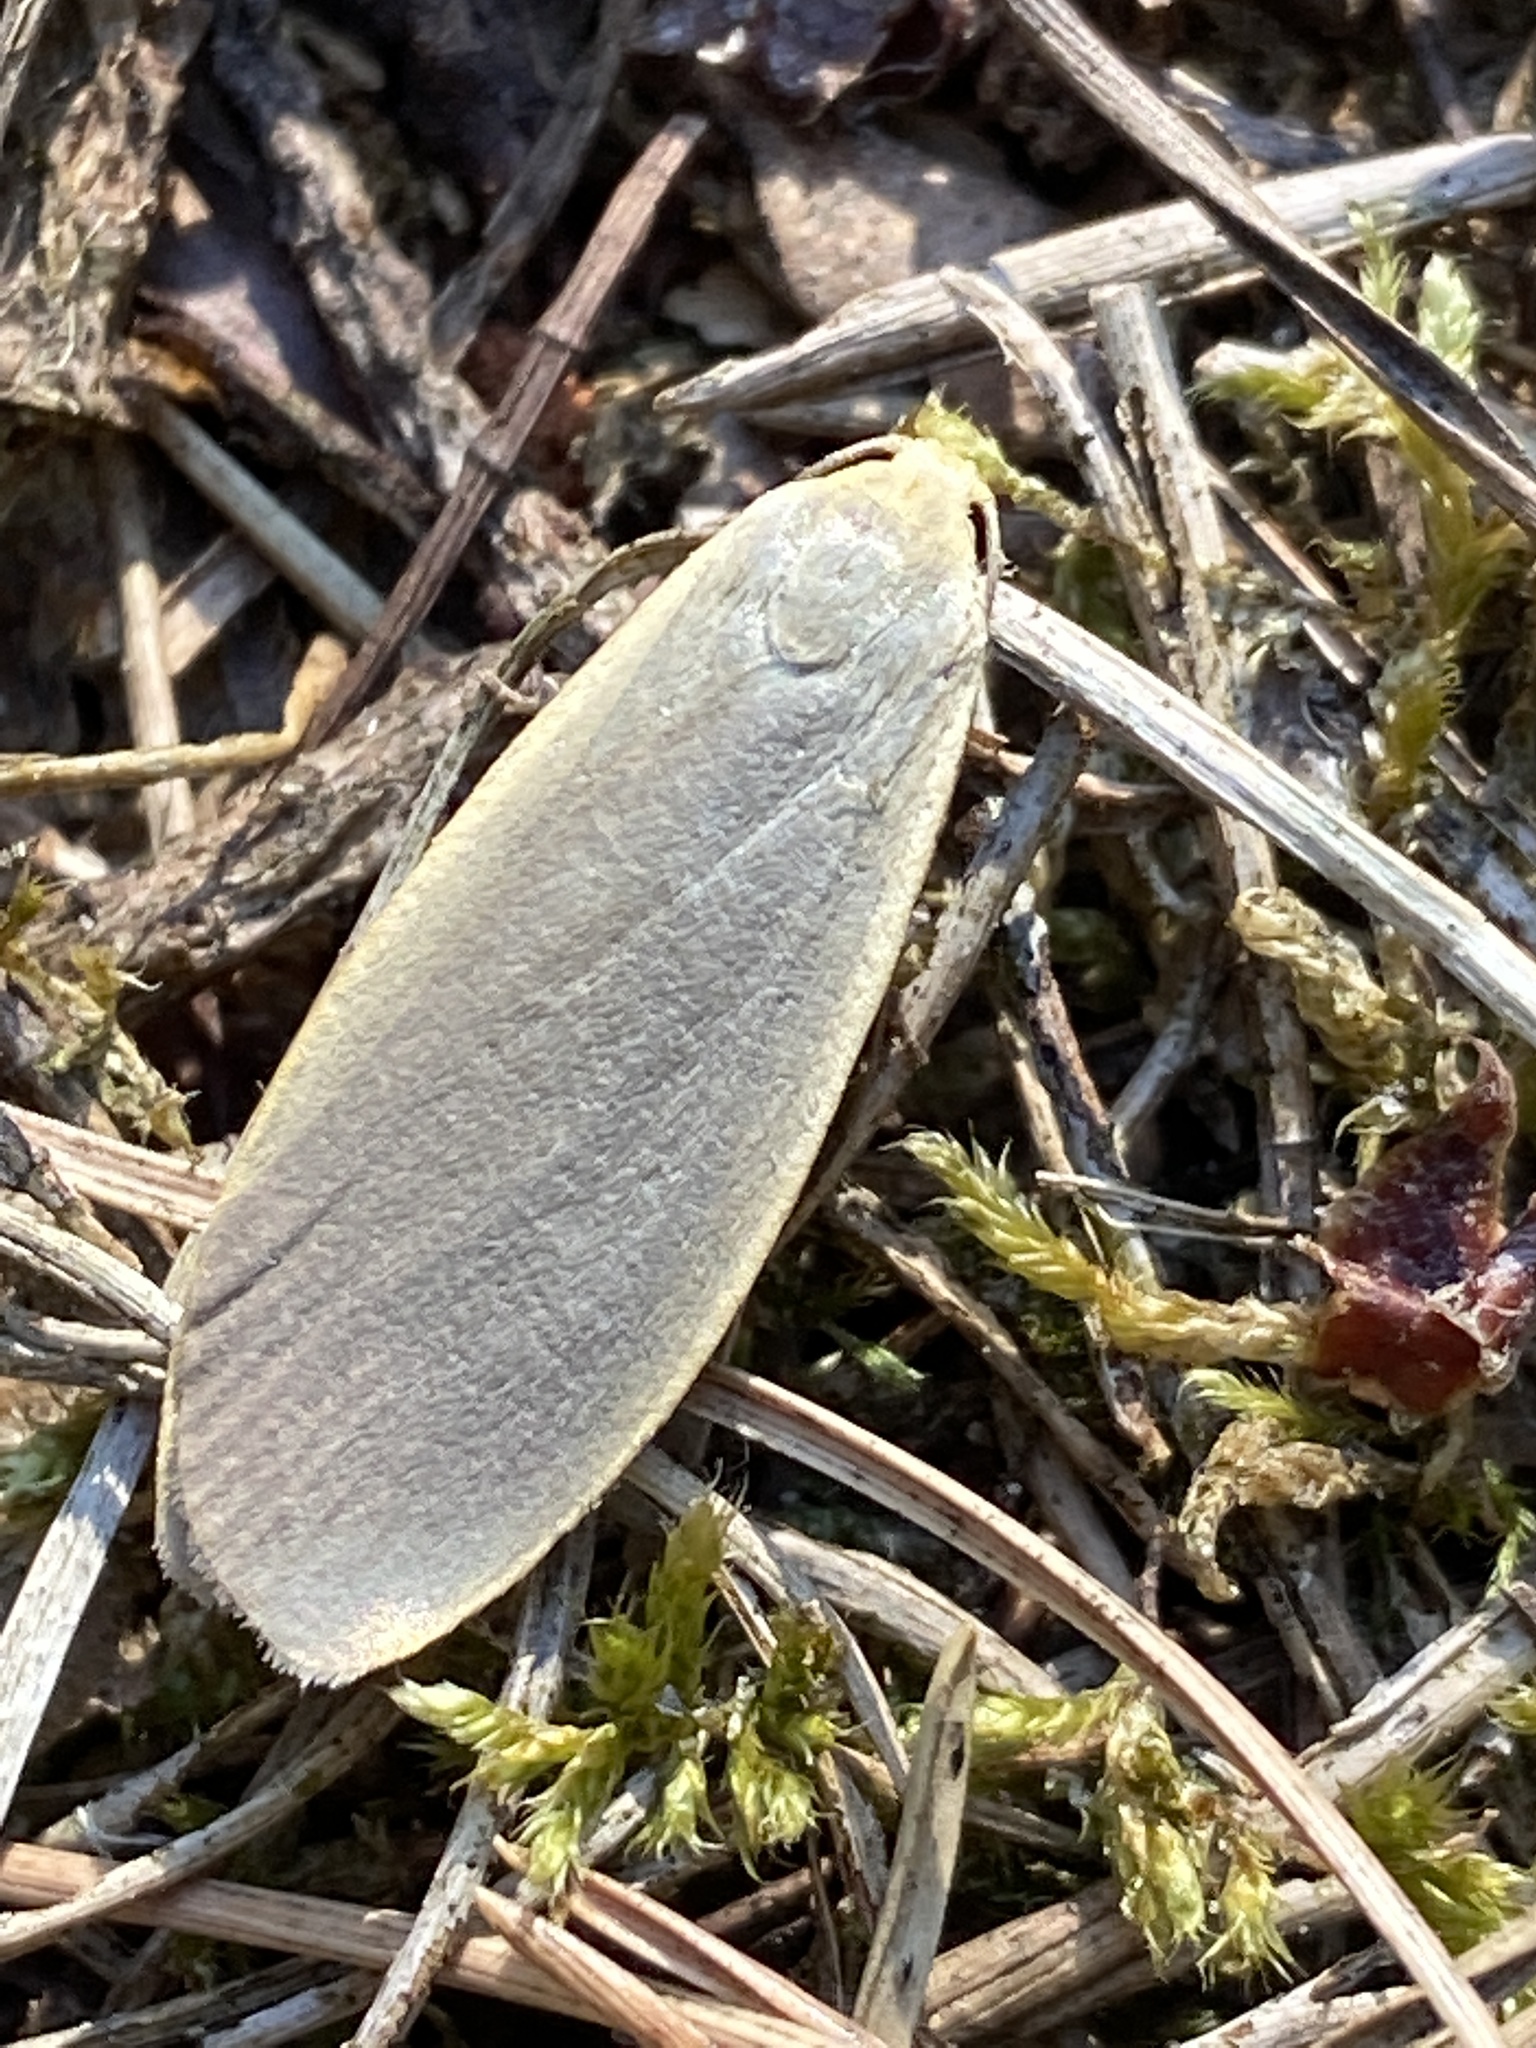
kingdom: Animalia
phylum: Arthropoda
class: Insecta
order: Lepidoptera
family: Erebidae
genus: Collita
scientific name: Collita griseola
